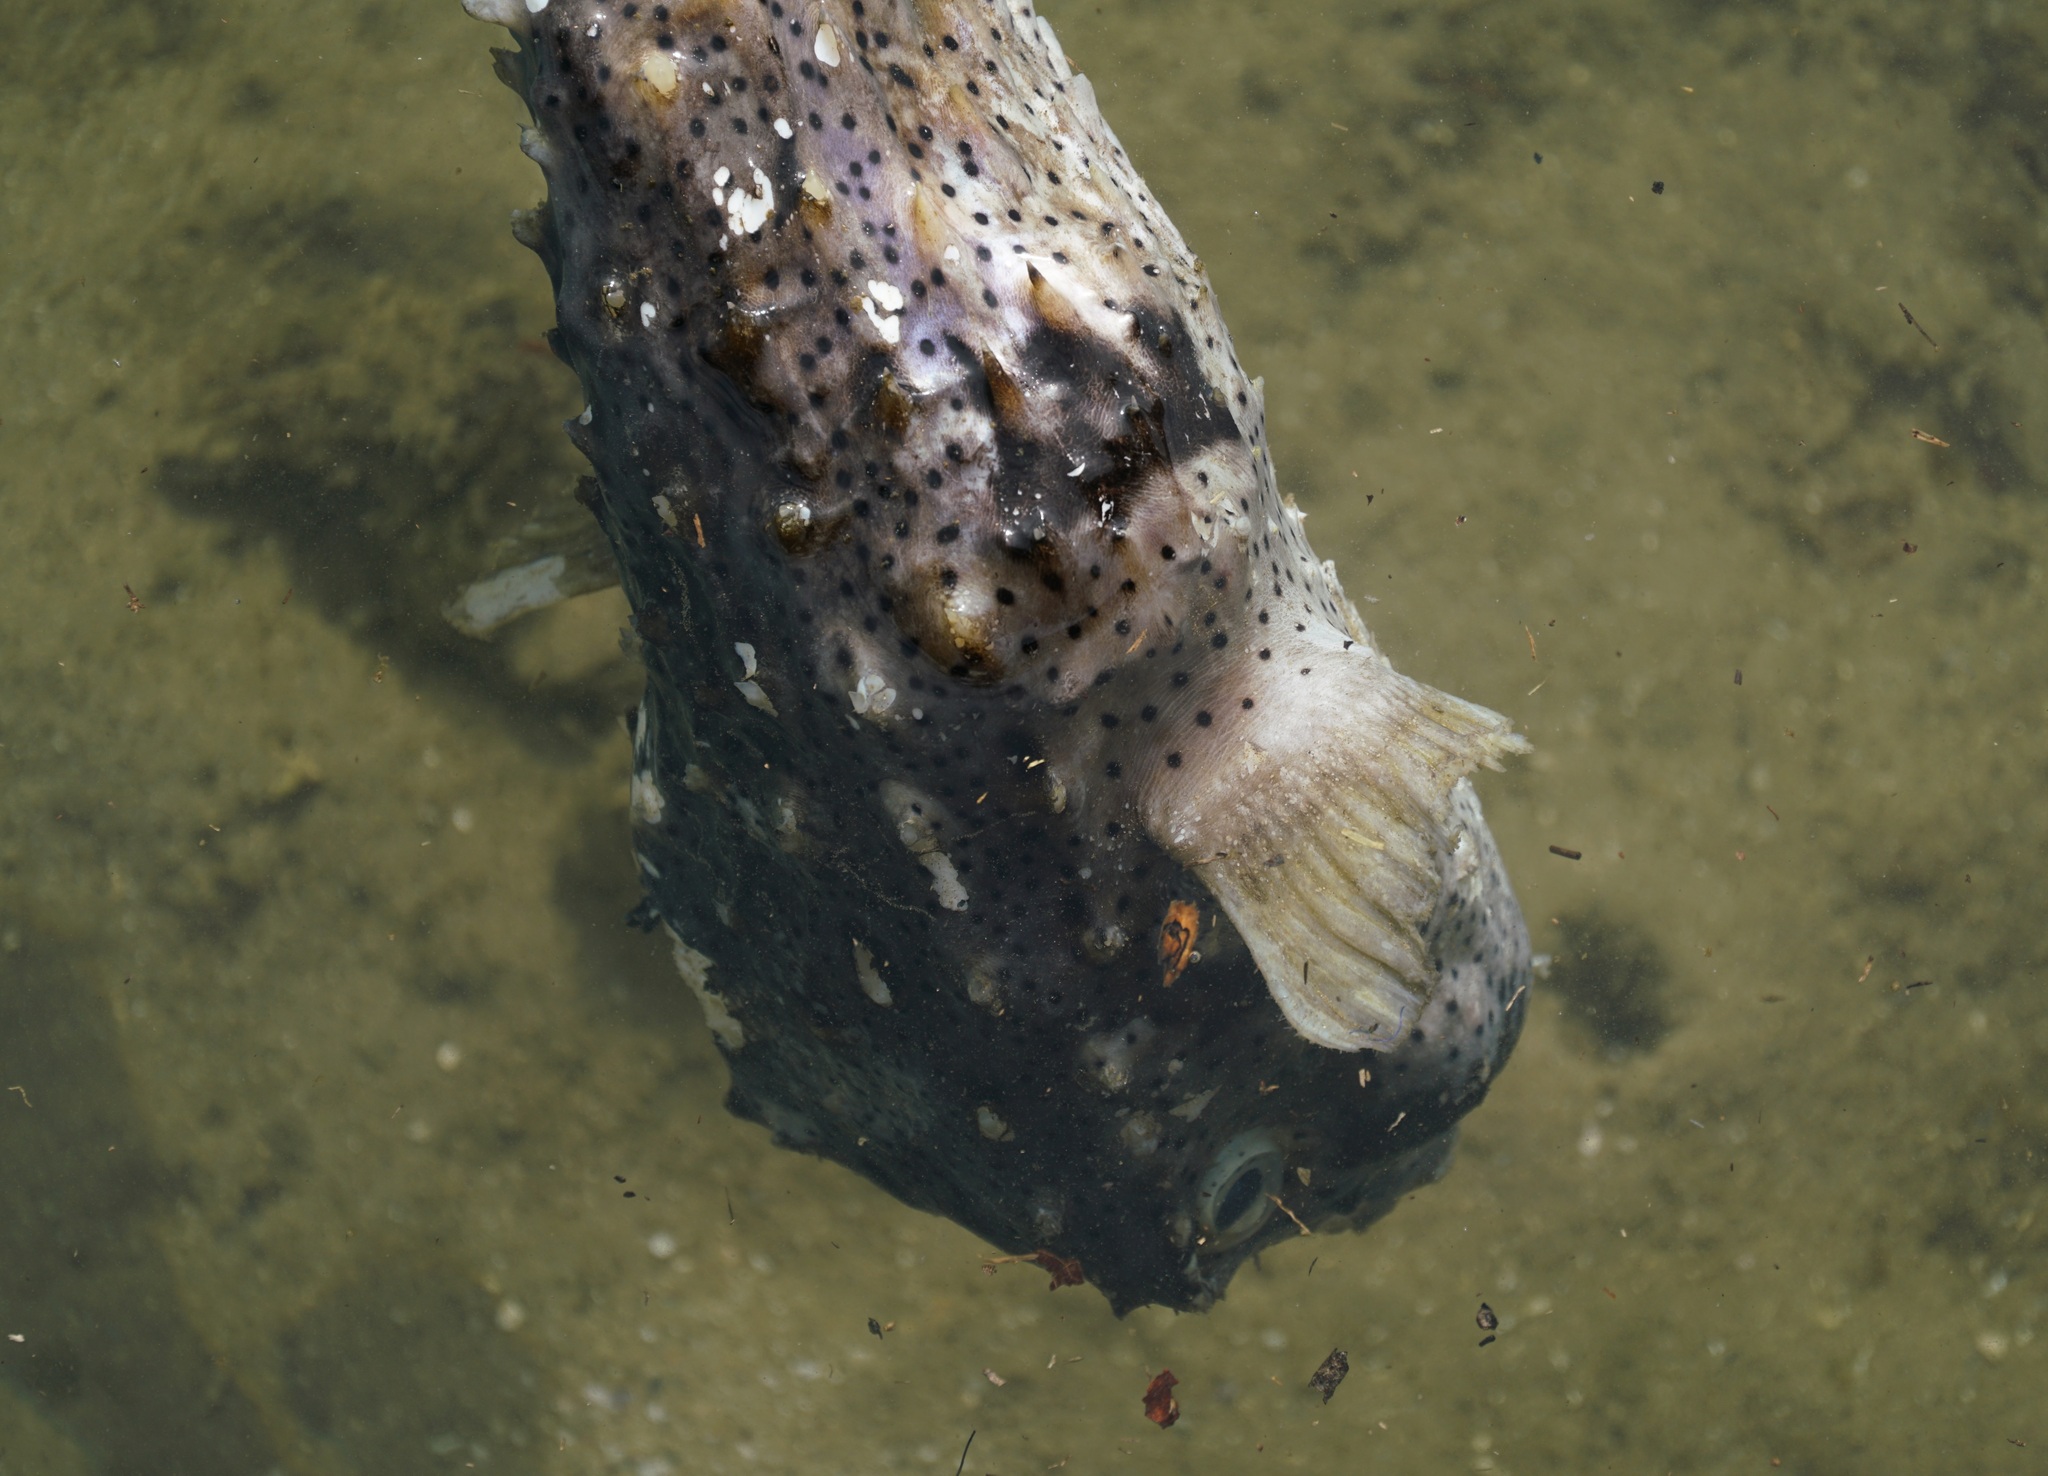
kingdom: Animalia
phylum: Chordata
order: Tetraodontiformes
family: Diodontidae
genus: Dicotylichthys
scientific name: Dicotylichthys punctulatus
